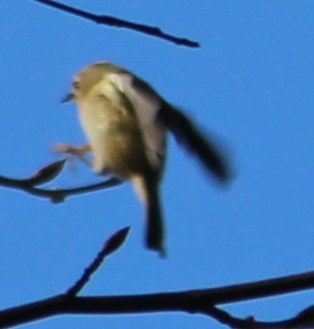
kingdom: Animalia
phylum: Chordata
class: Aves
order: Passeriformes
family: Regulidae
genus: Regulus
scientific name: Regulus regulus
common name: Goldcrest
